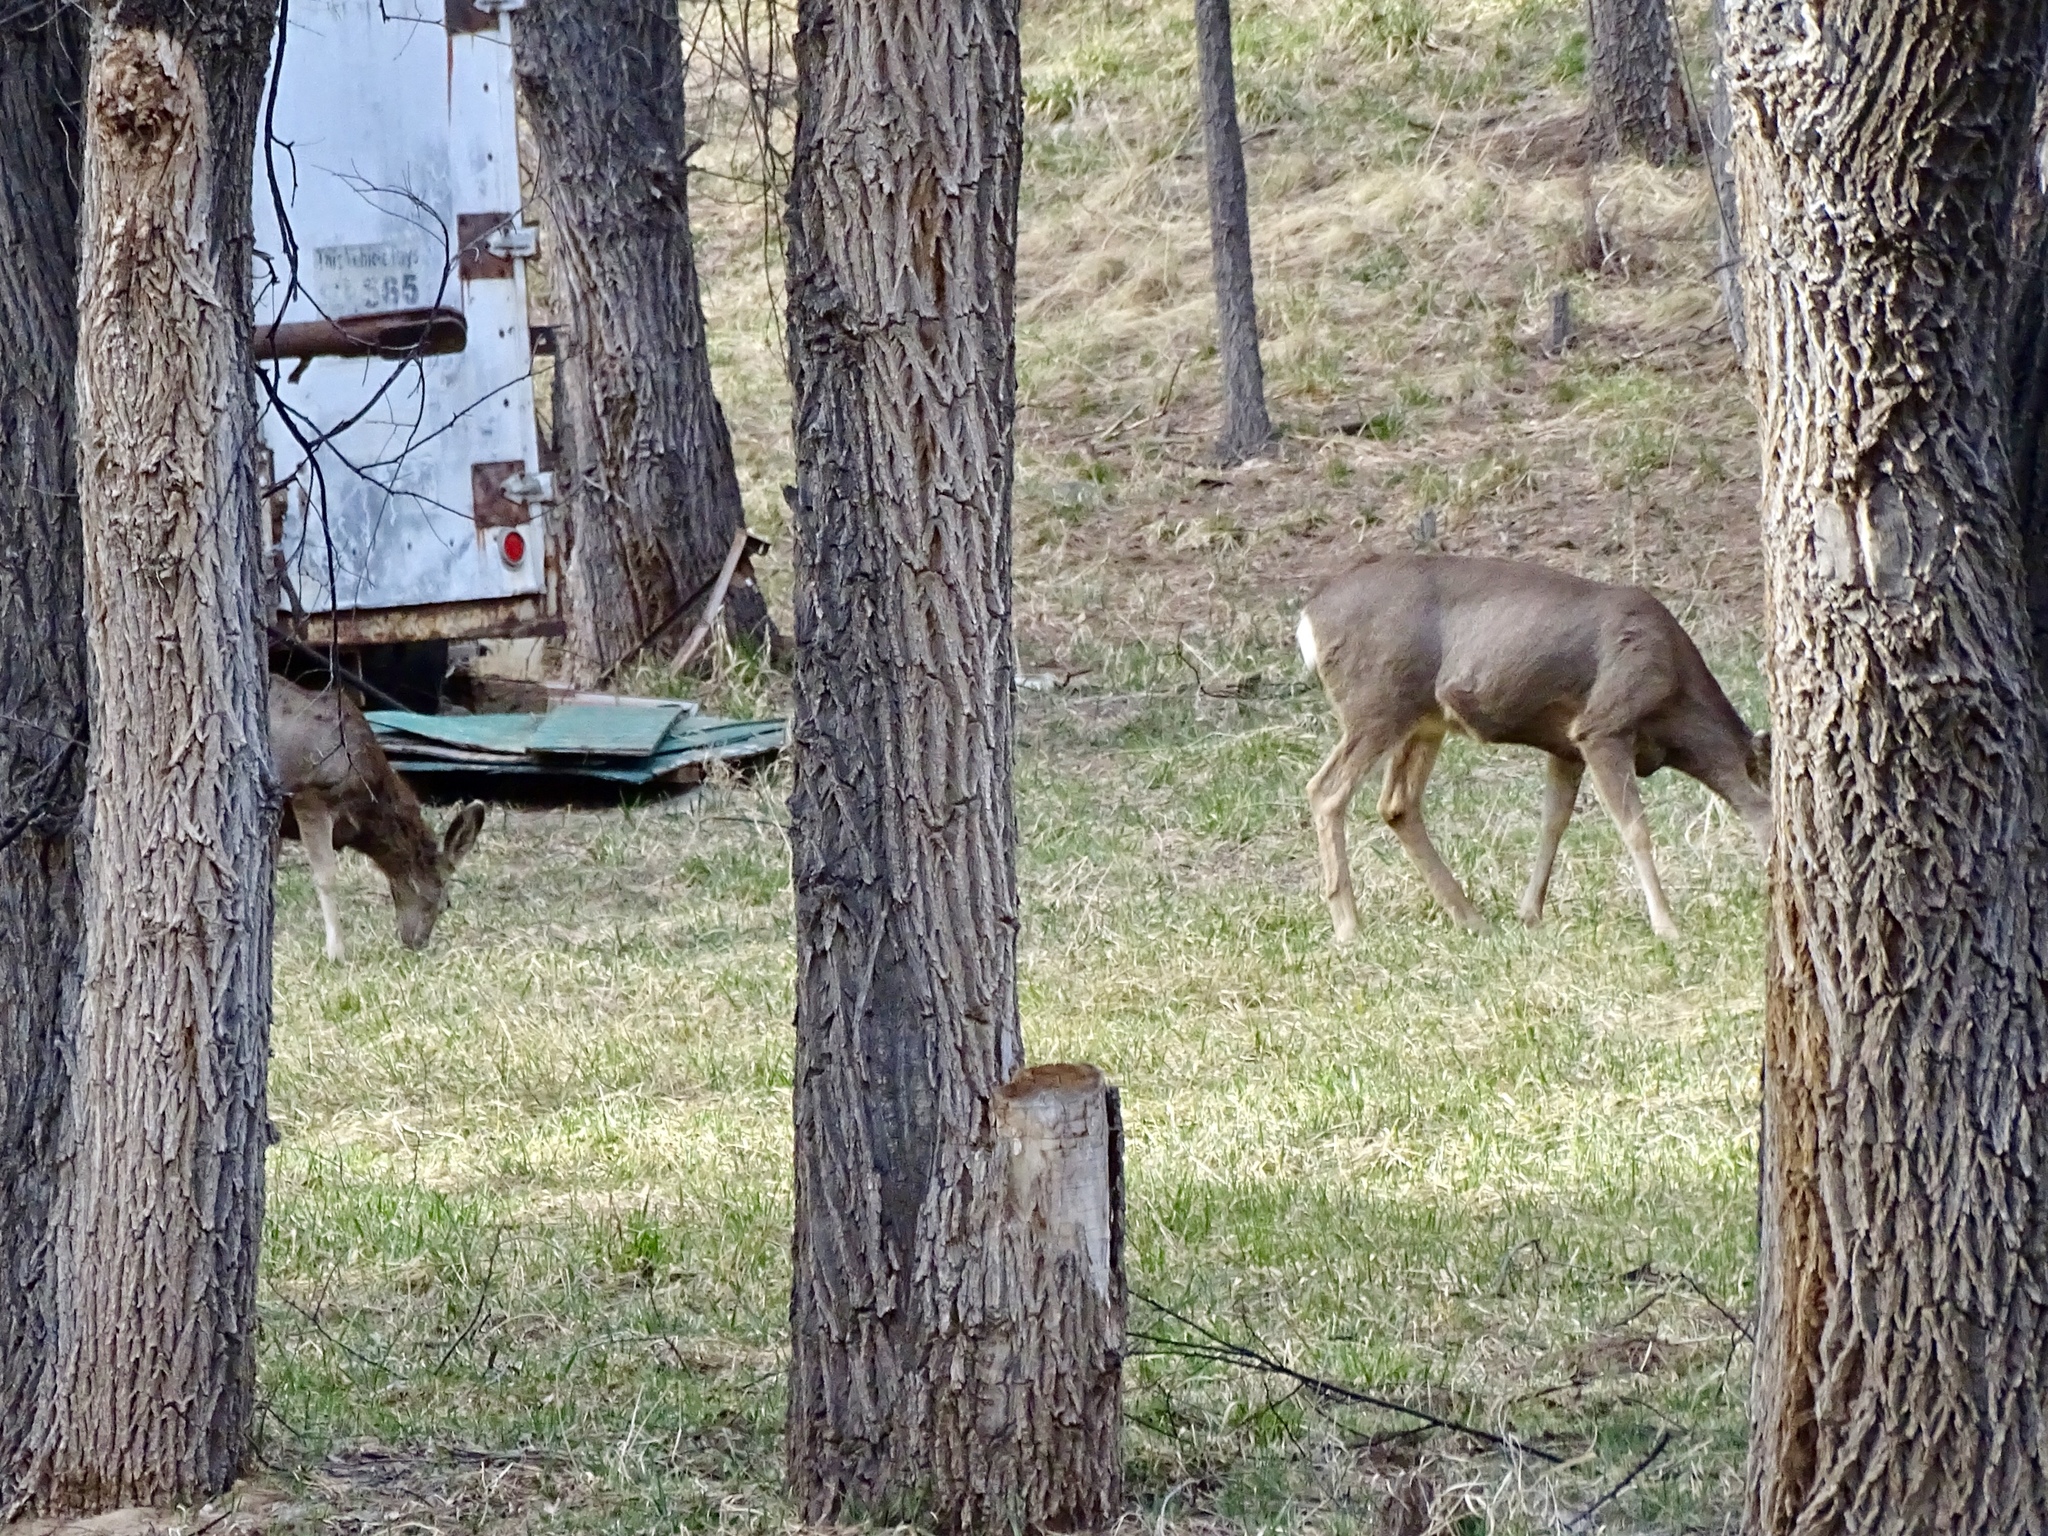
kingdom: Animalia
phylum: Chordata
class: Mammalia
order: Artiodactyla
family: Cervidae
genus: Odocoileus
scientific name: Odocoileus hemionus
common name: Mule deer
